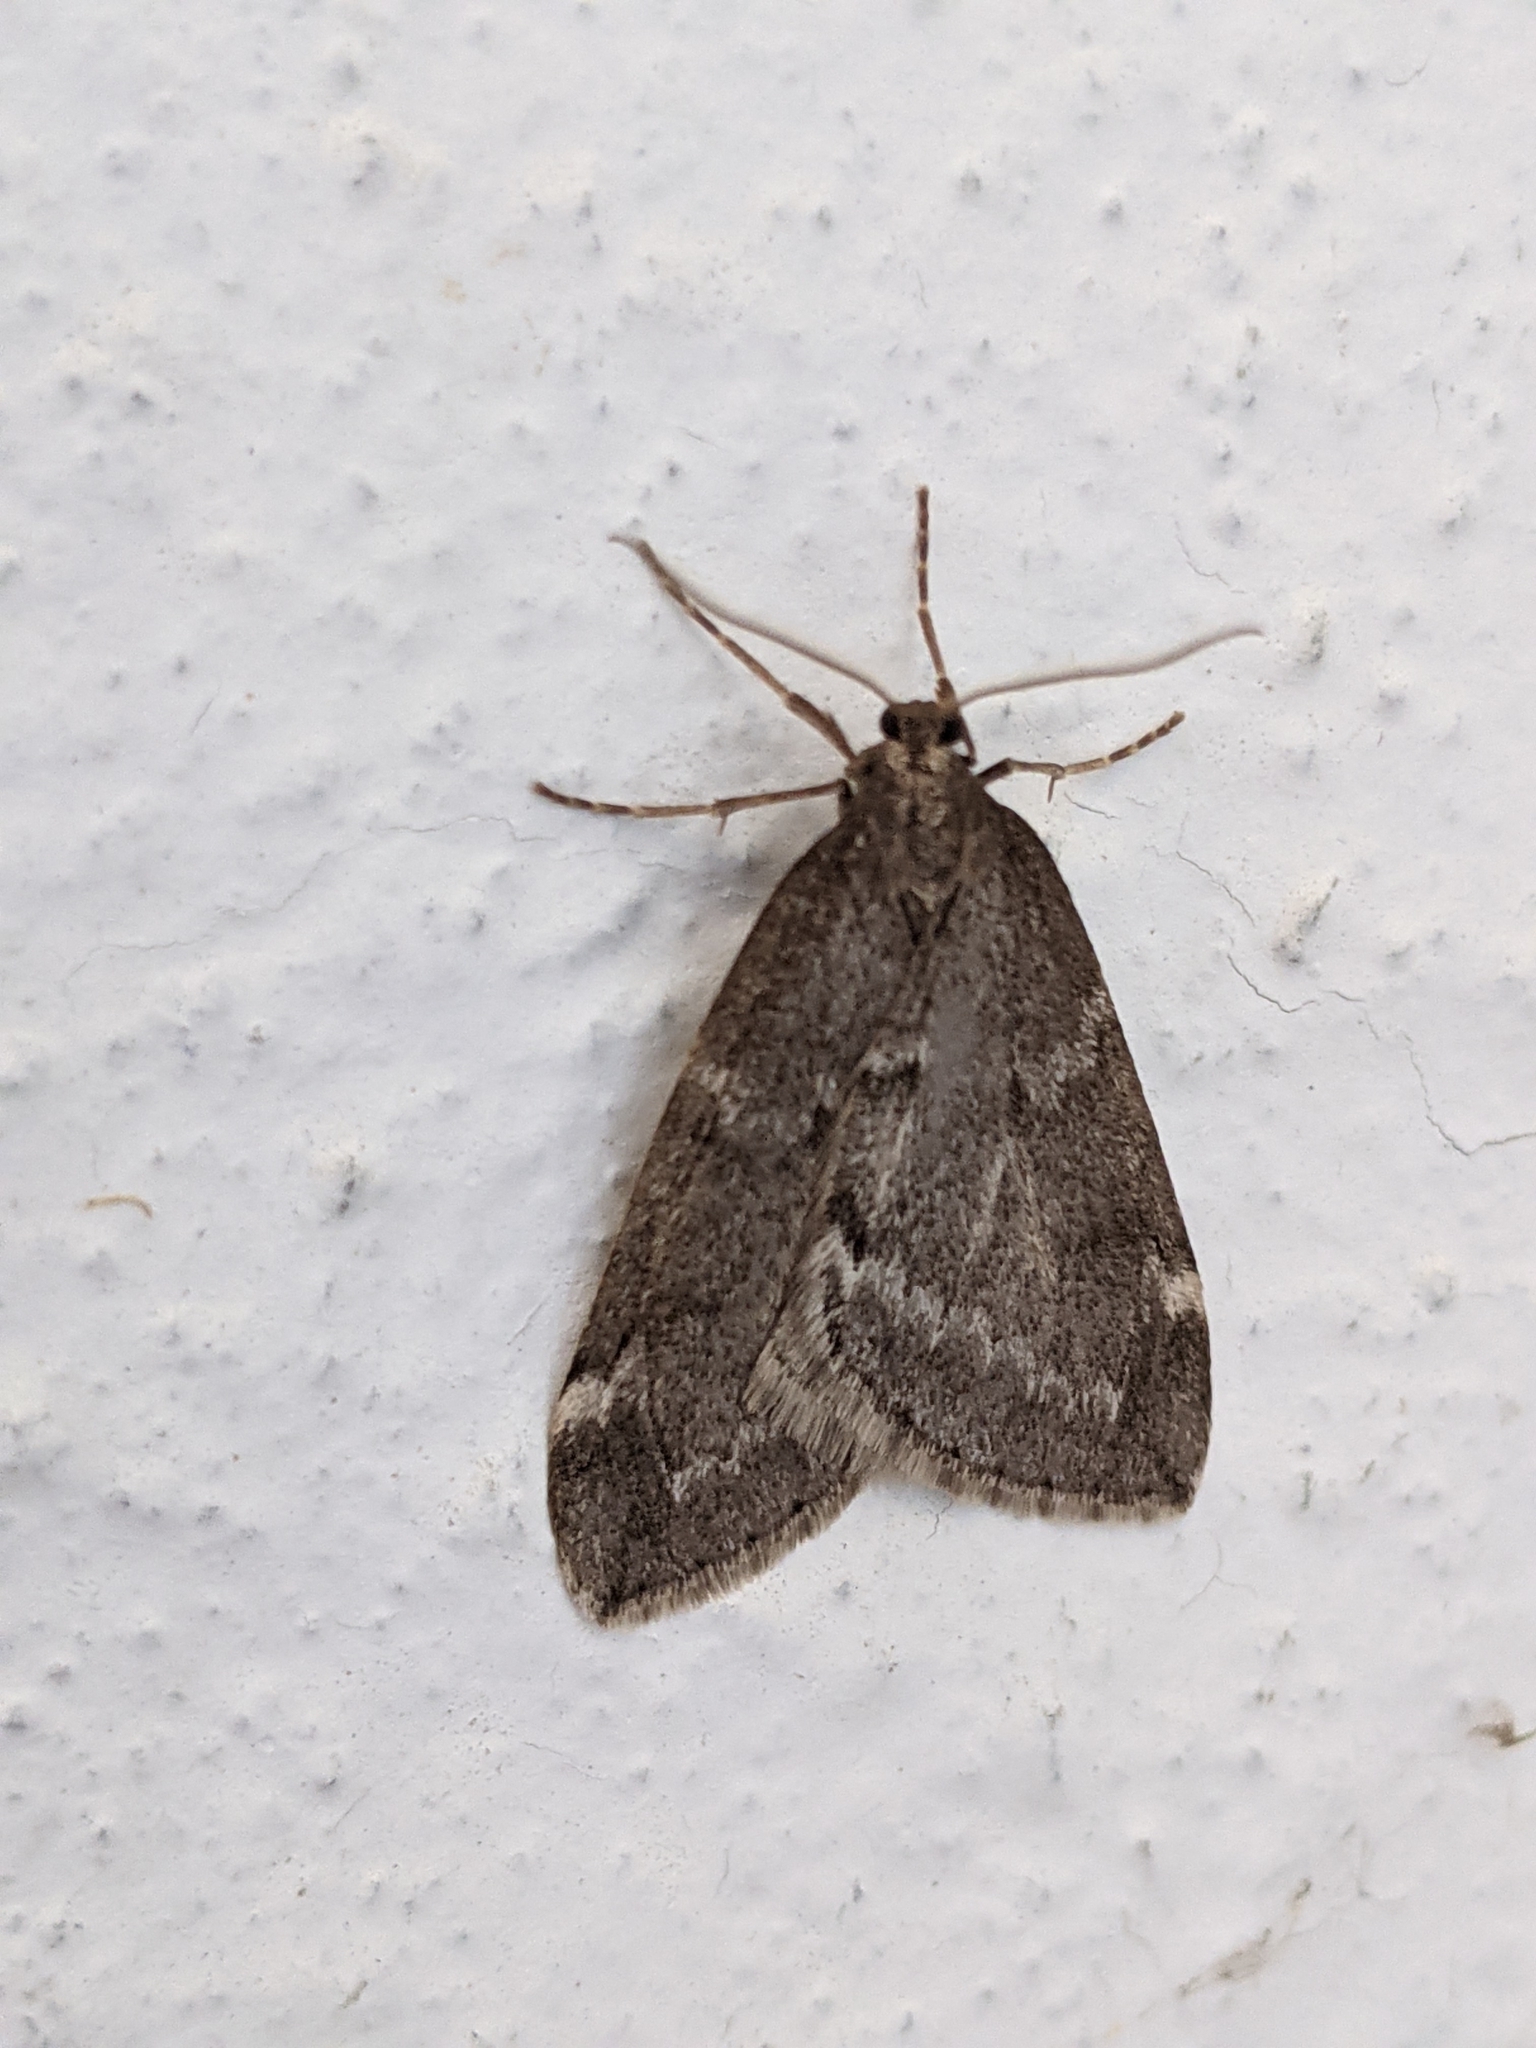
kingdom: Animalia
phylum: Arthropoda
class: Insecta
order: Lepidoptera
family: Geometridae
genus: Alsophila
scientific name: Alsophila pometaria
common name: Fall cankerworm
